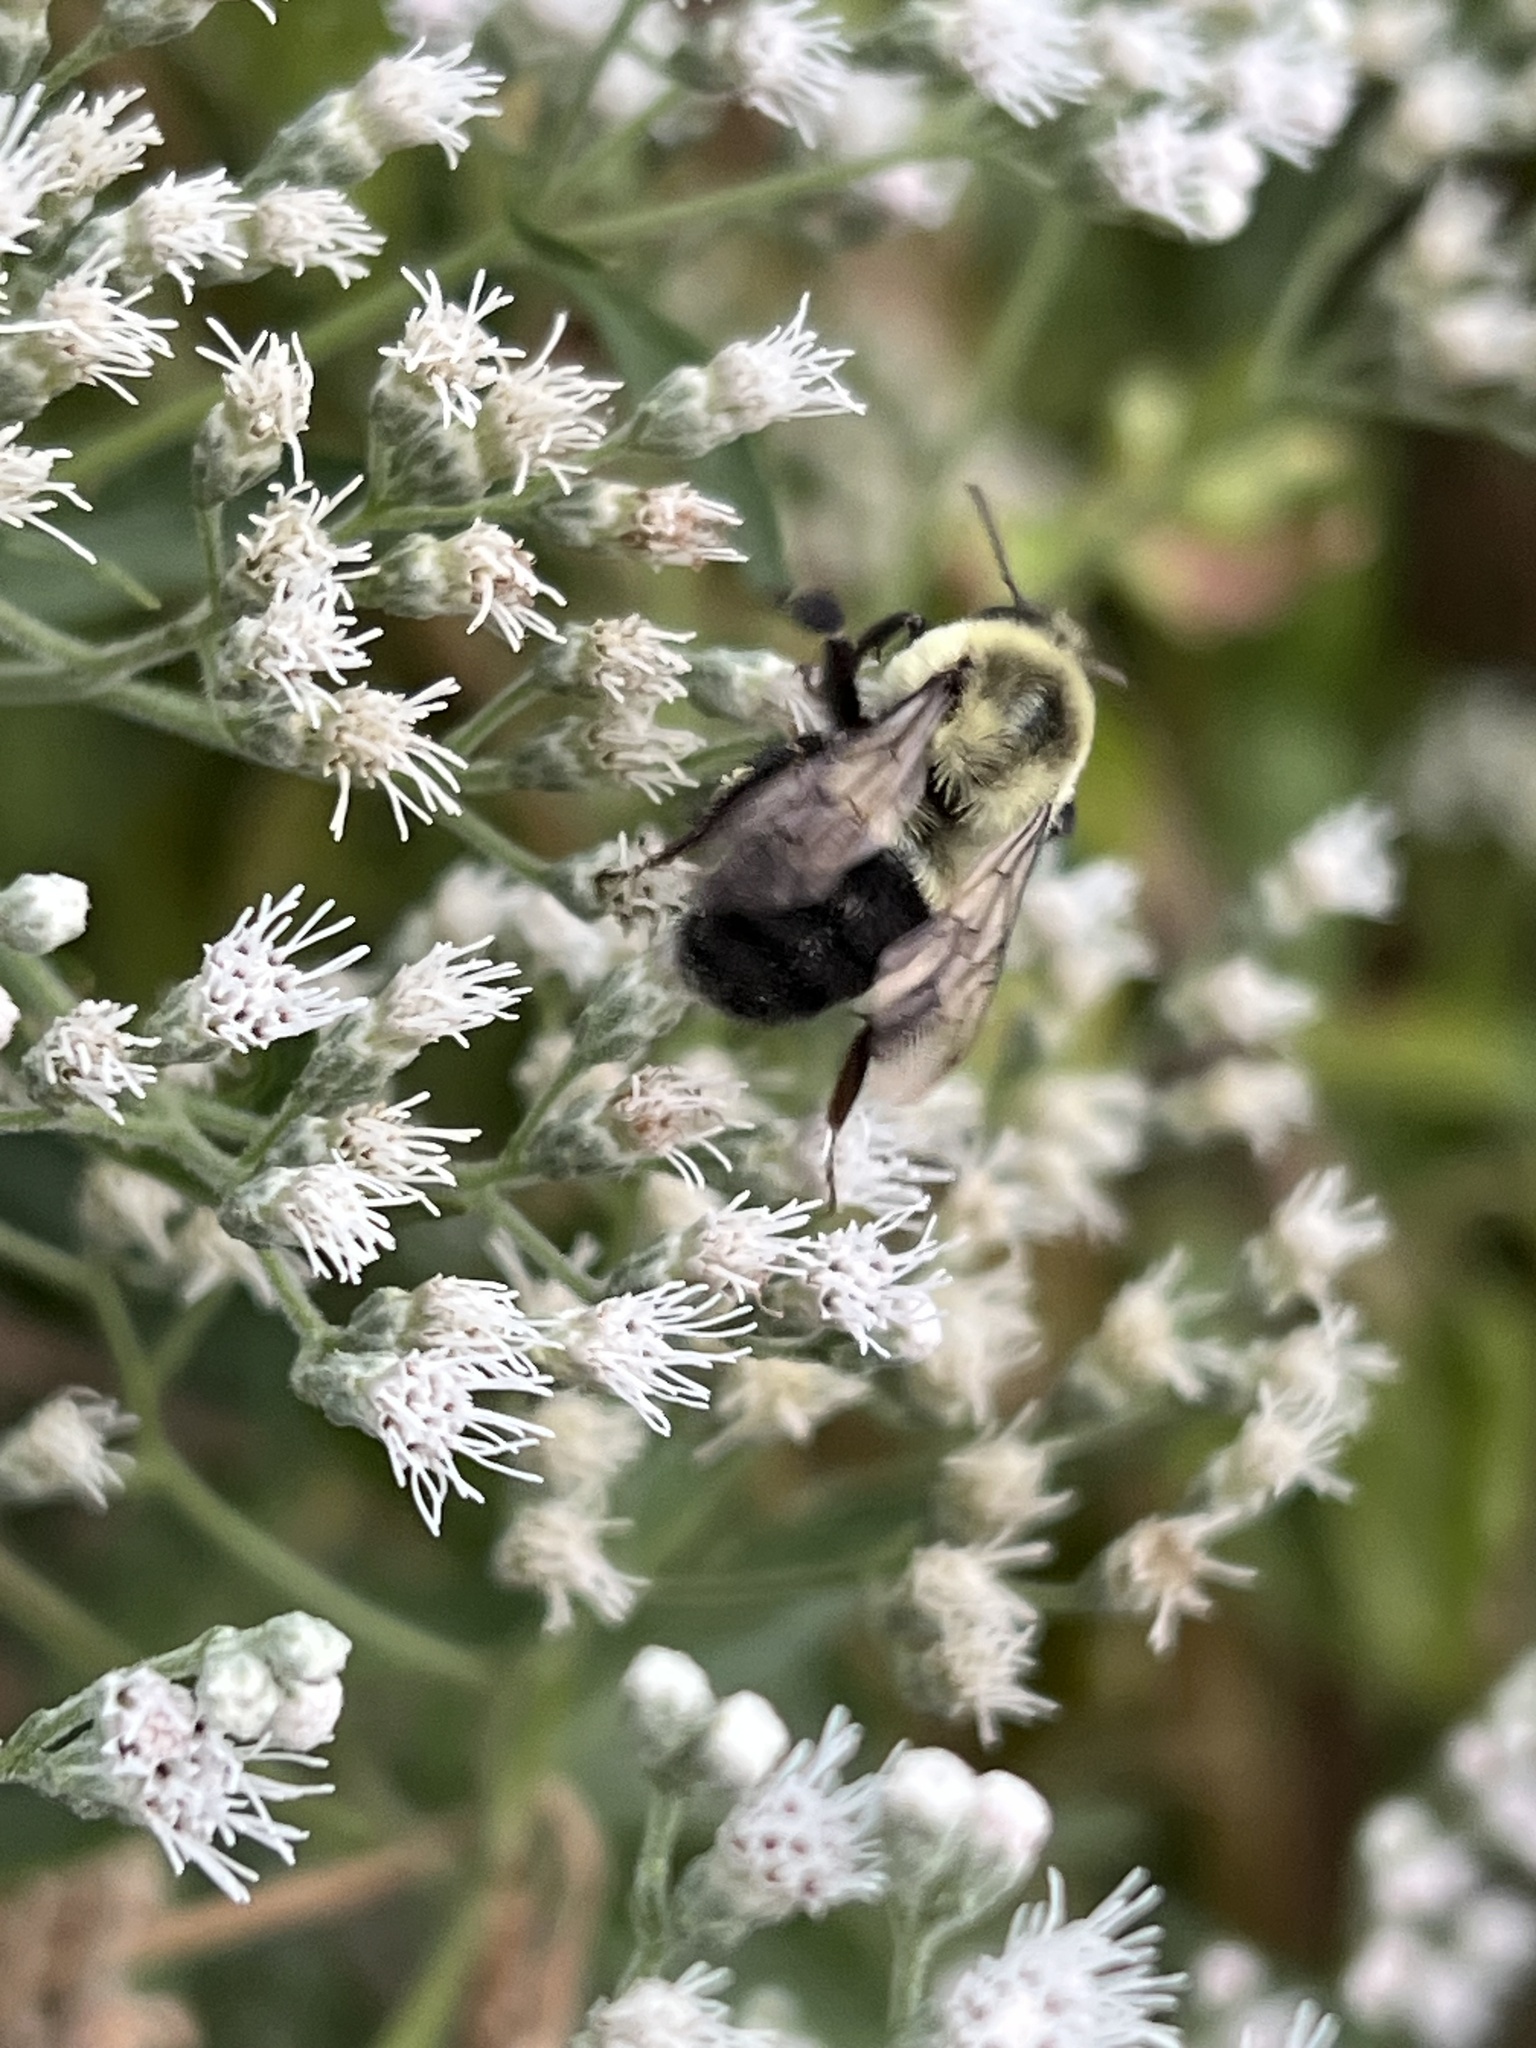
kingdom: Animalia
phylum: Arthropoda
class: Insecta
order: Hymenoptera
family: Apidae
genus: Bombus
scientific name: Bombus impatiens
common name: Common eastern bumble bee
